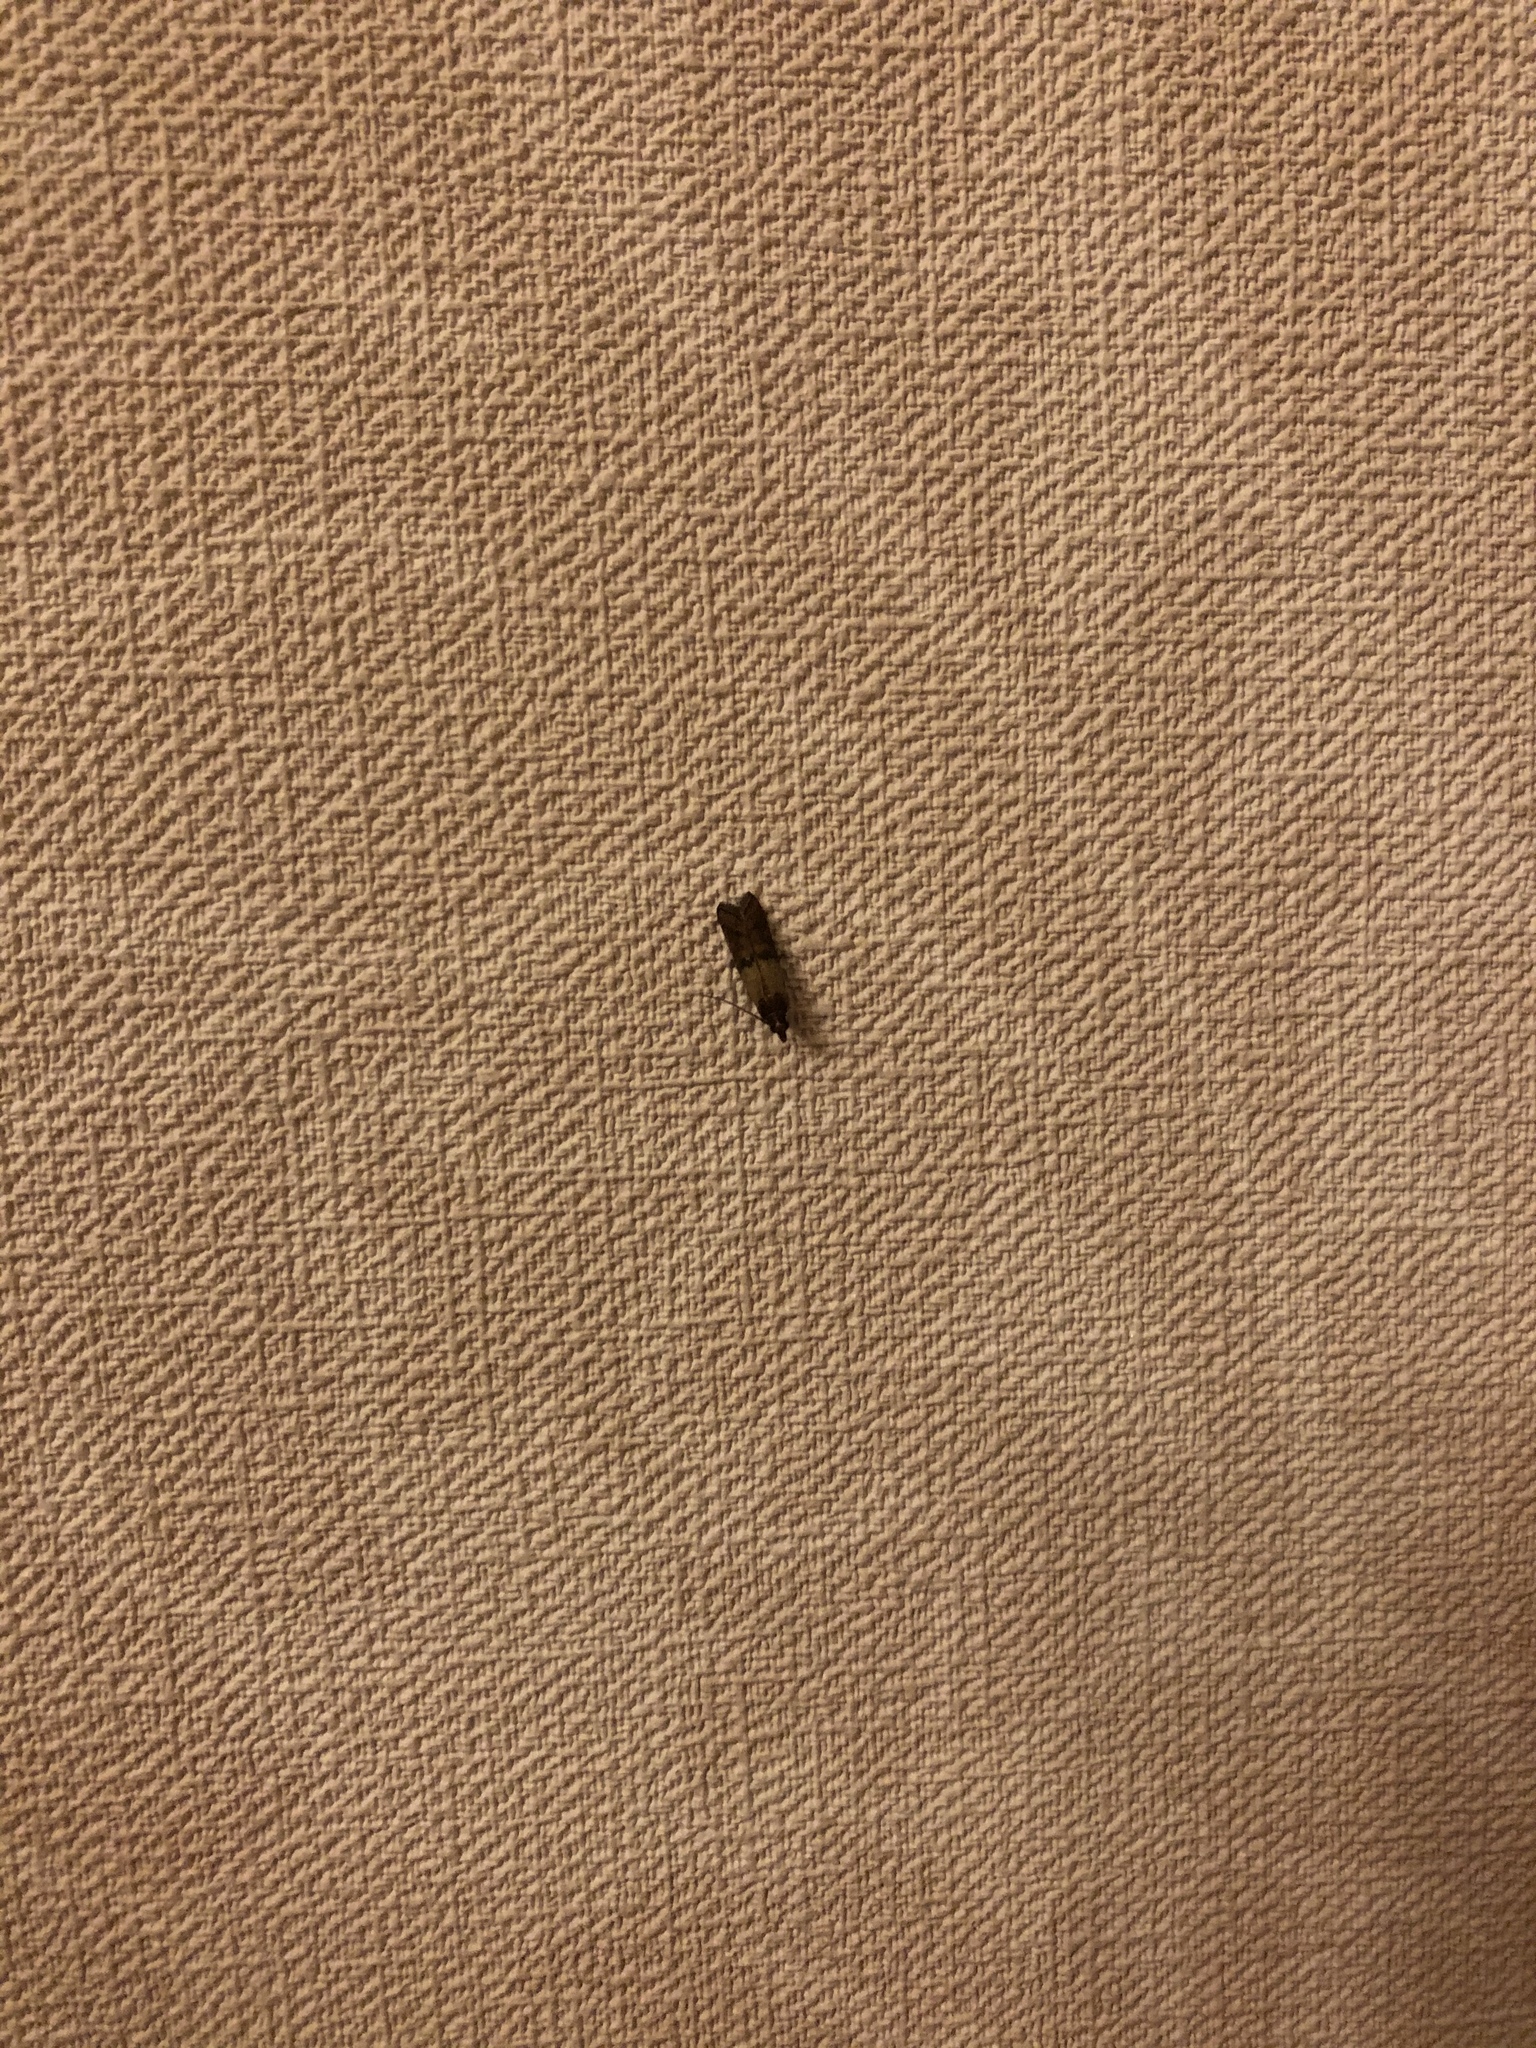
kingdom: Animalia
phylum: Arthropoda
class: Insecta
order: Lepidoptera
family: Pyralidae
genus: Plodia
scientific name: Plodia interpunctella
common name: Indian meal moth
